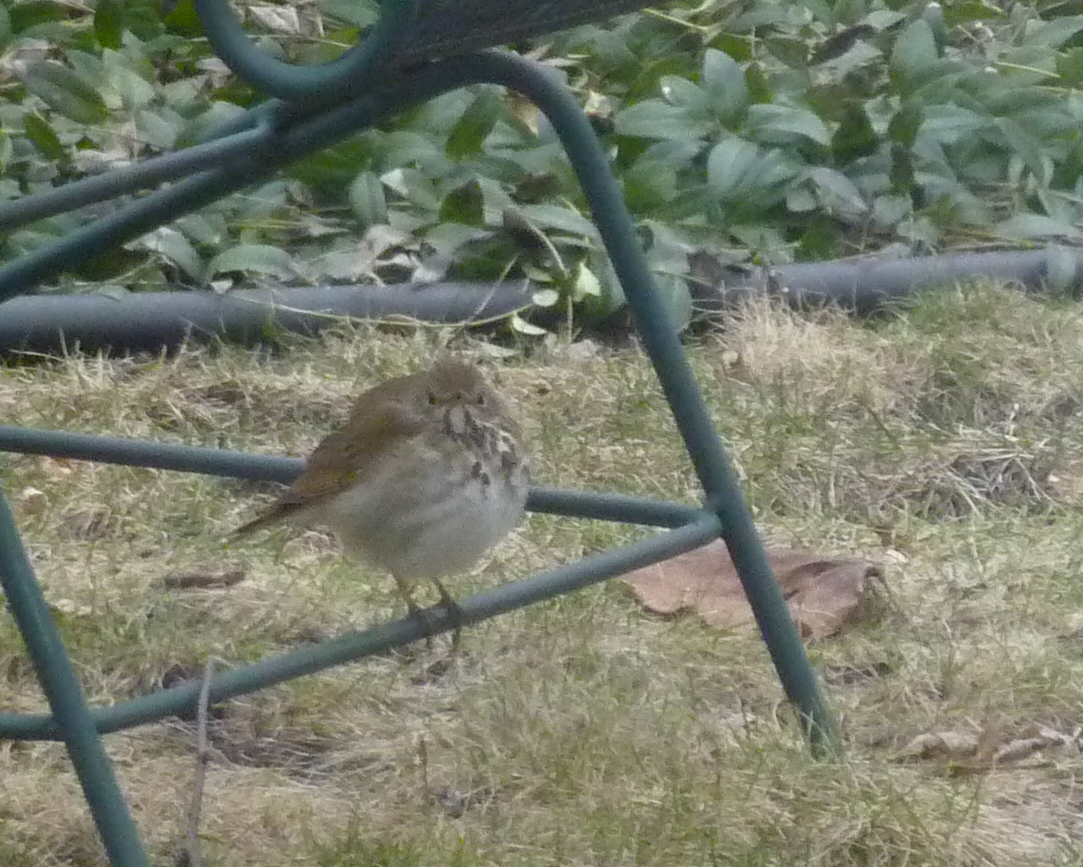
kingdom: Animalia
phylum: Chordata
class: Aves
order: Passeriformes
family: Turdidae
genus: Catharus
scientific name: Catharus guttatus
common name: Hermit thrush
